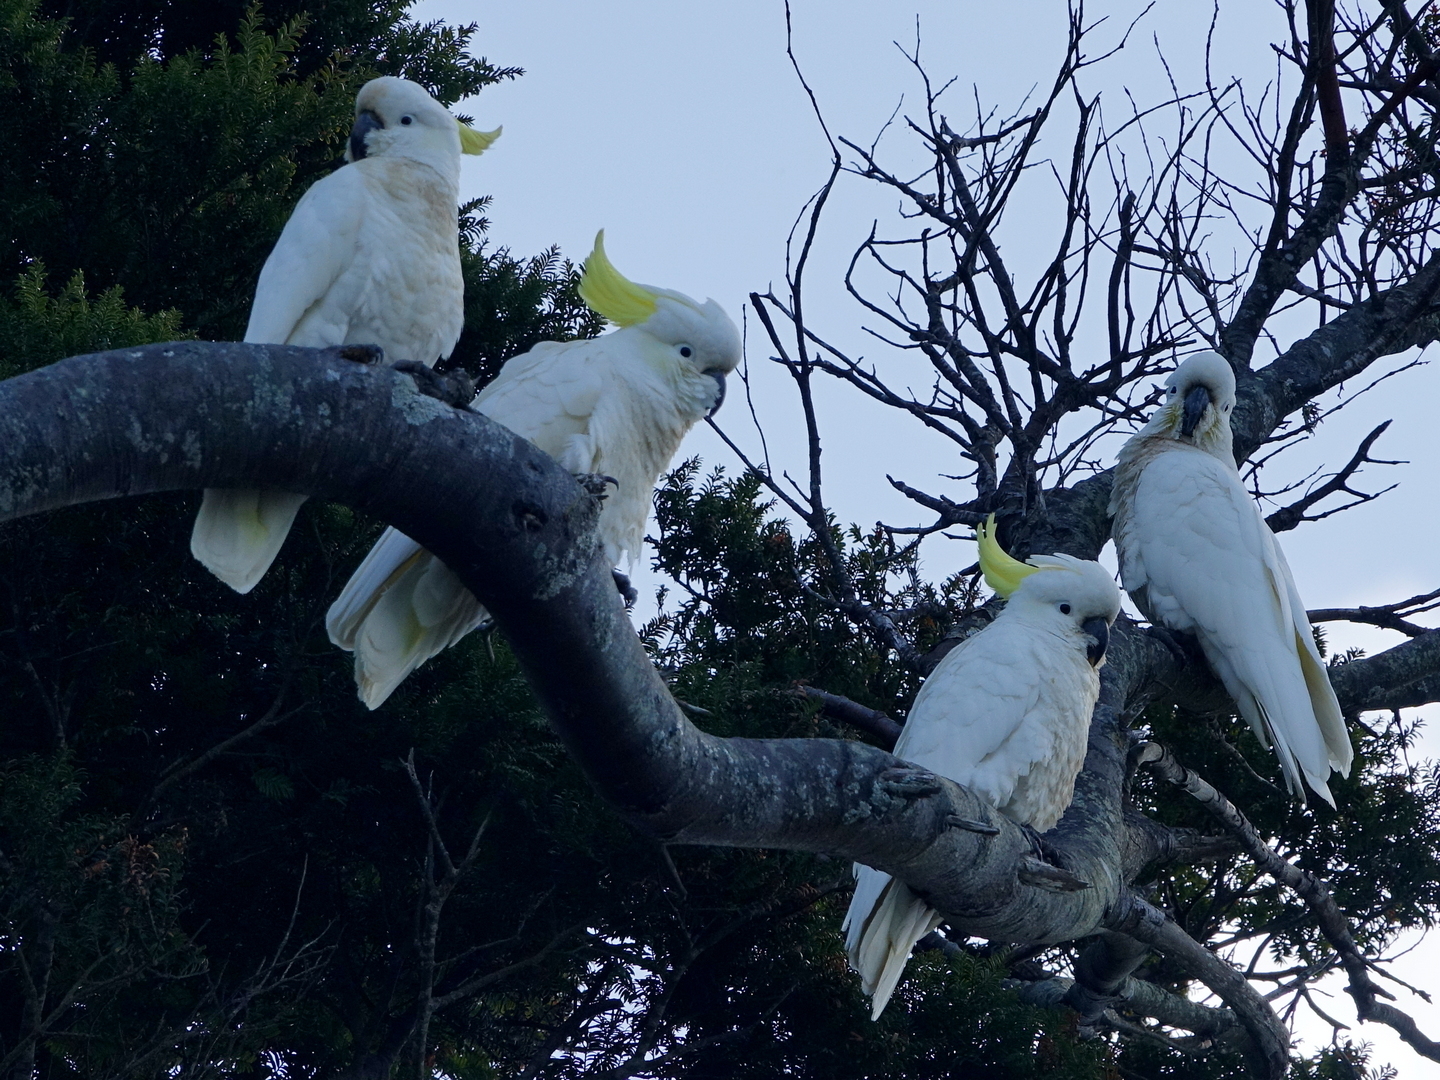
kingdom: Animalia
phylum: Chordata
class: Aves
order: Psittaciformes
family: Psittacidae
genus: Cacatua
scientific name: Cacatua galerita
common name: Sulphur-crested cockatoo
